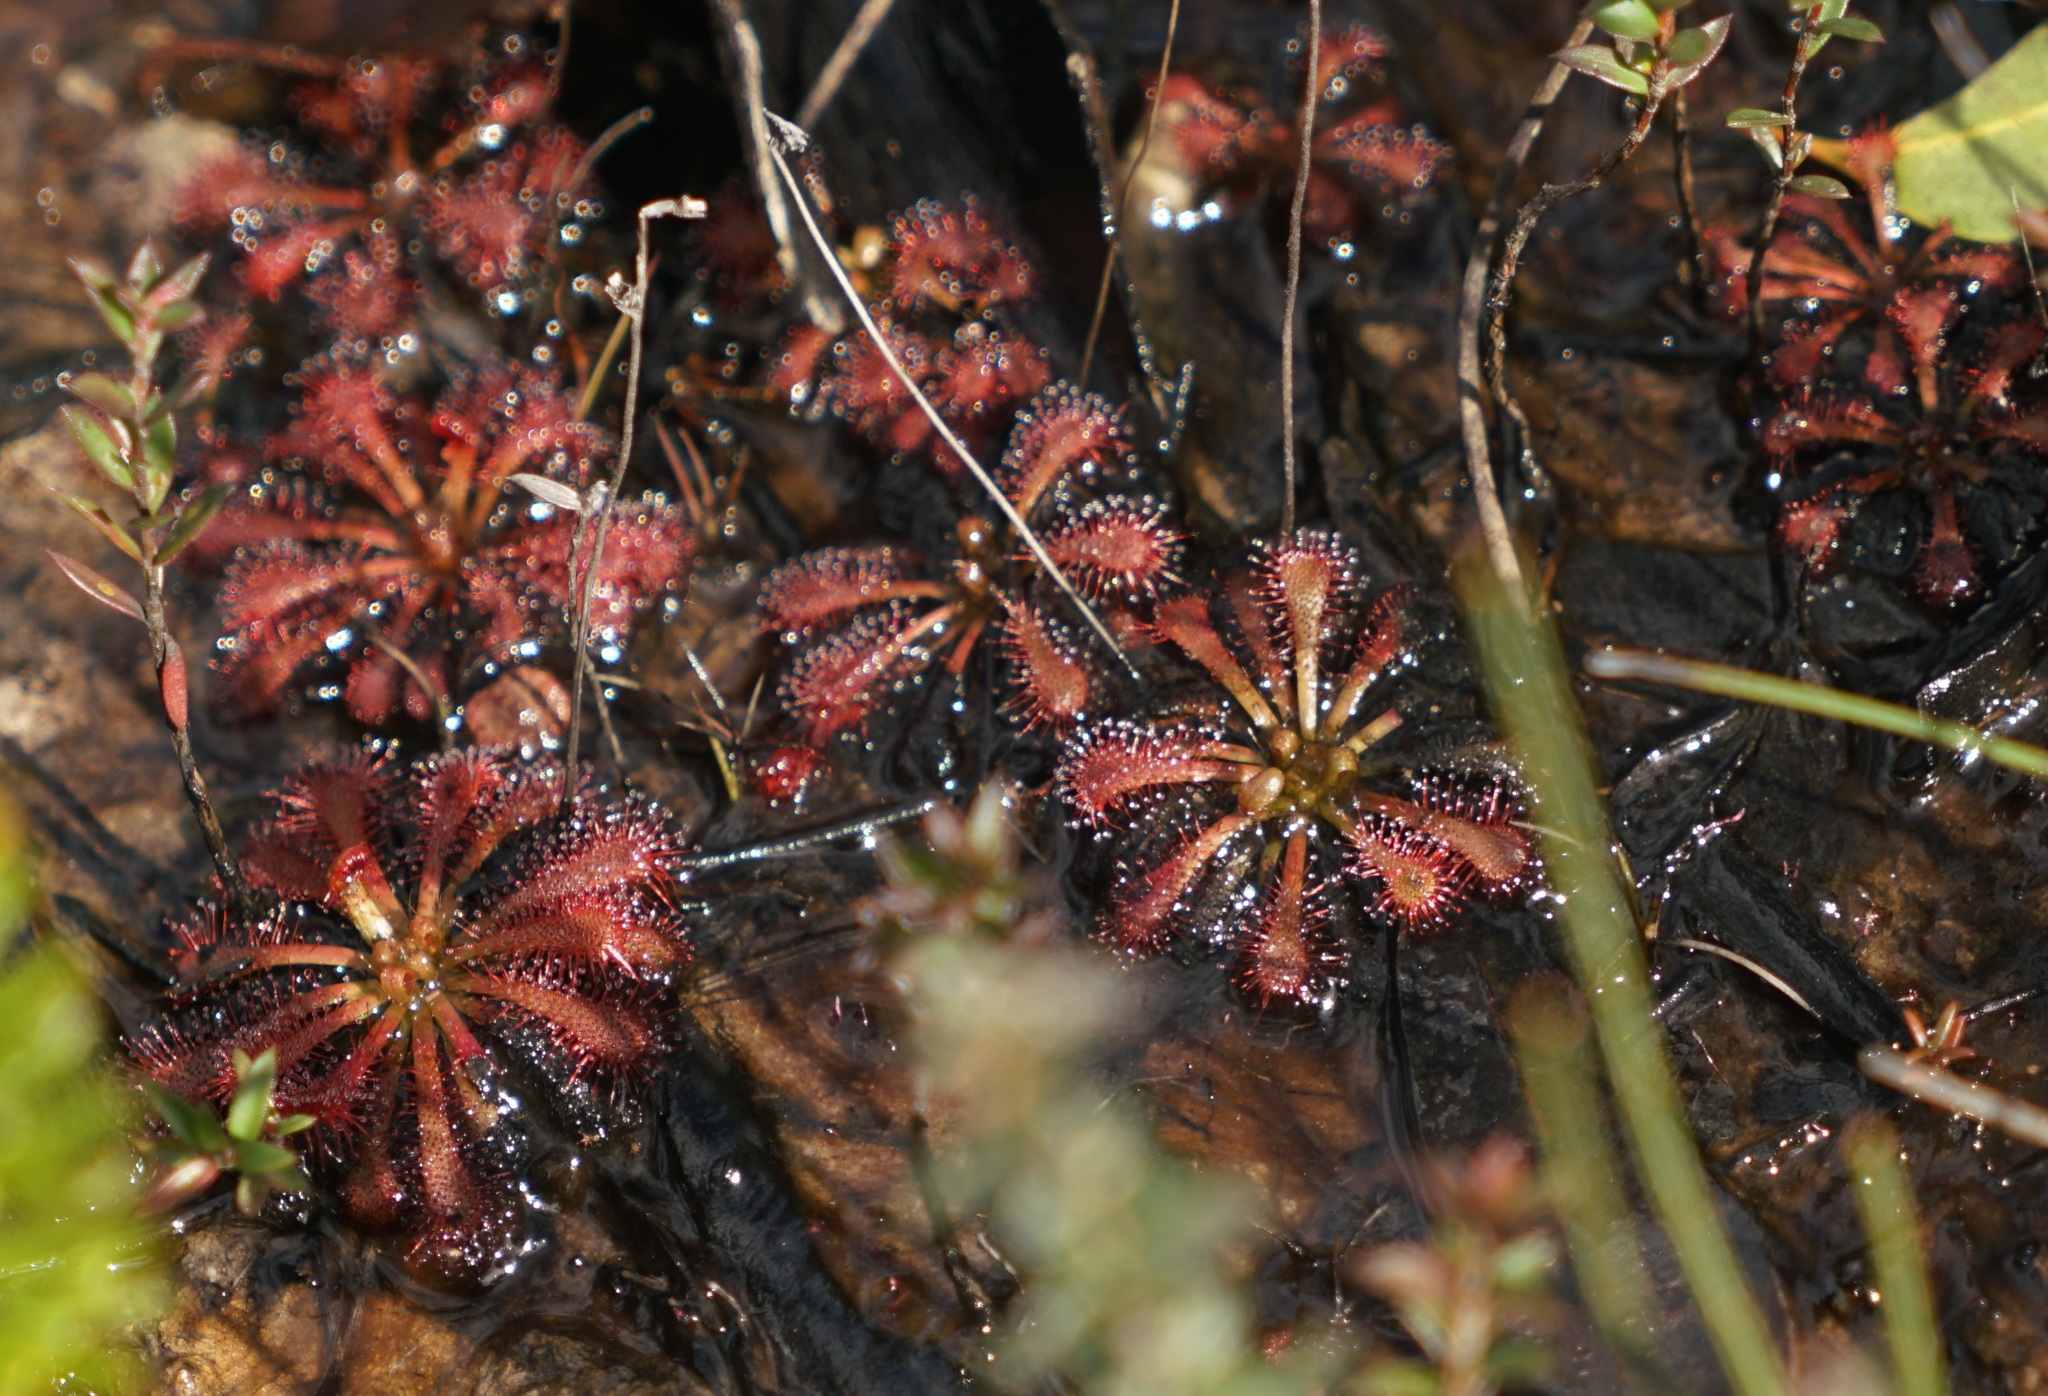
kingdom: Plantae
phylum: Tracheophyta
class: Magnoliopsida
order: Caryophyllales
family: Droseraceae
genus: Drosera
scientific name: Drosera spatulata
